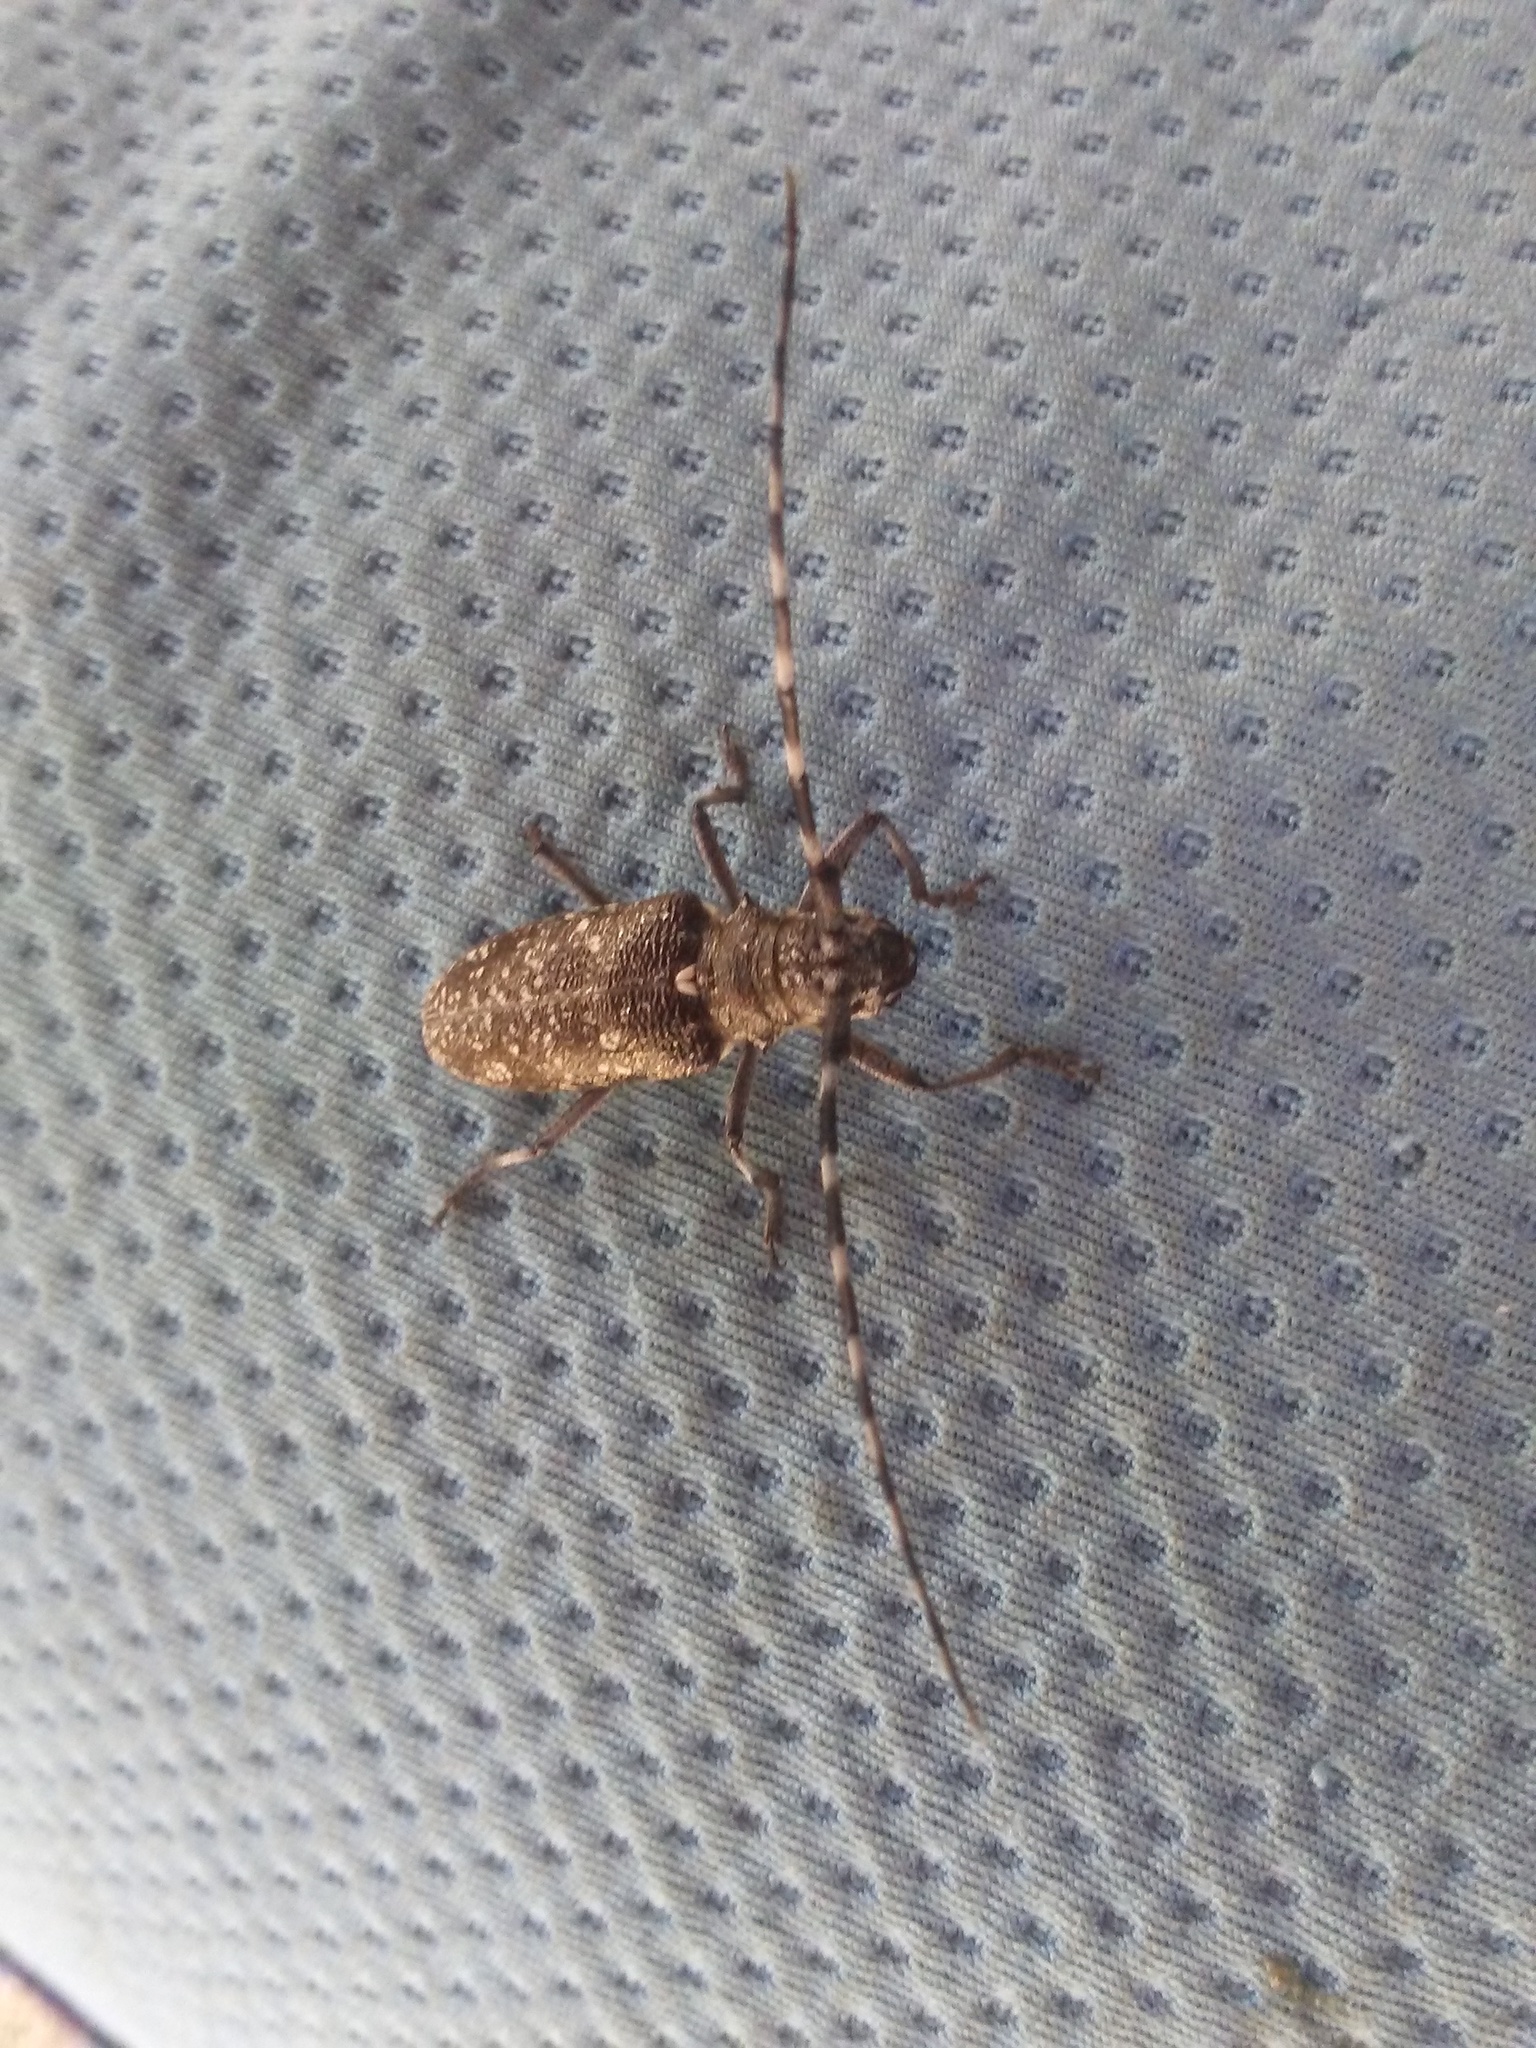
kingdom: Animalia
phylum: Arthropoda
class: Insecta
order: Coleoptera
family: Cerambycidae
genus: Monochamus
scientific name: Monochamus scutellatus
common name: White-spotted sawyer beetle
